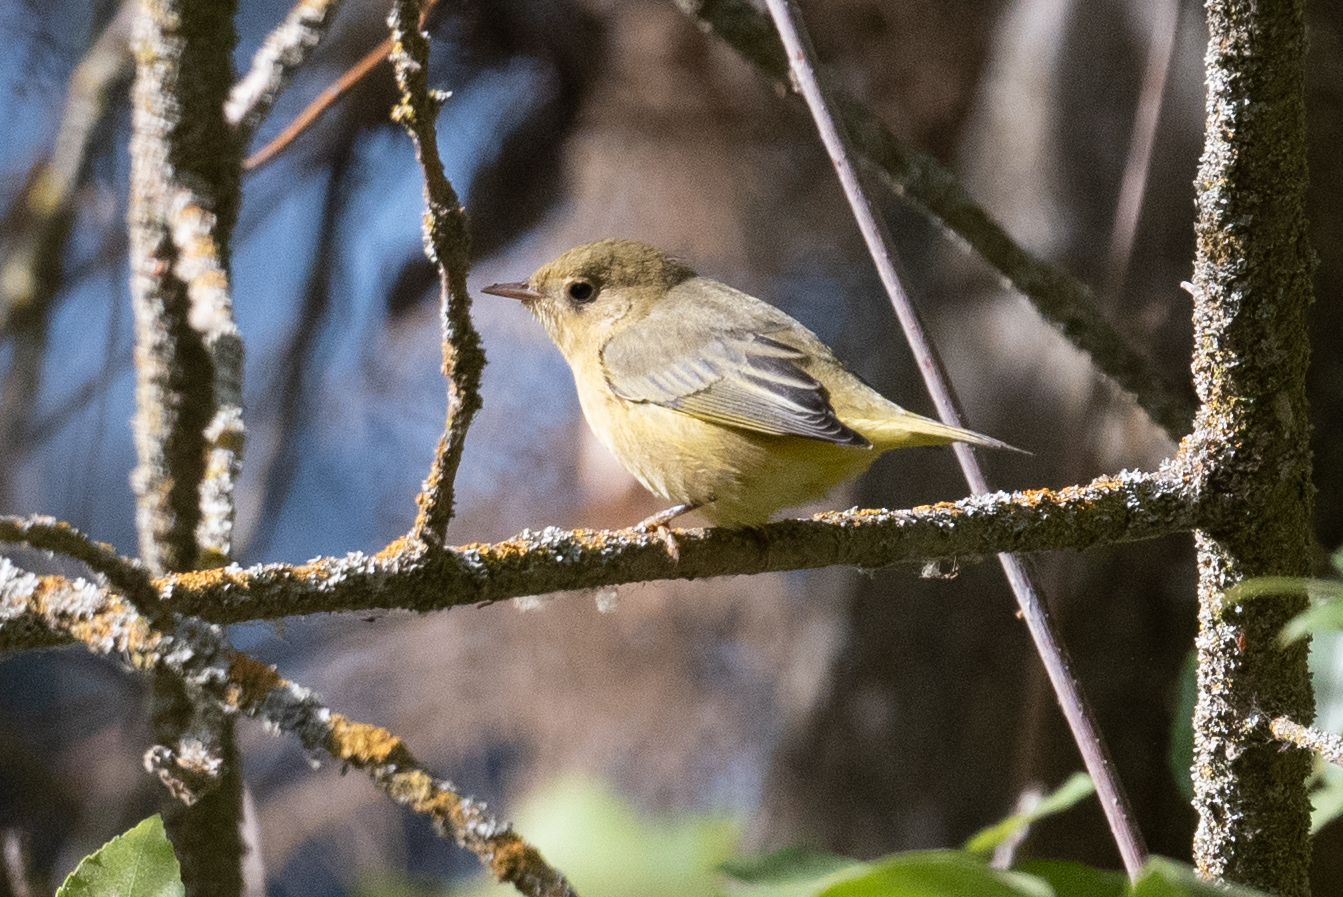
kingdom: Animalia
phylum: Chordata
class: Aves
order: Passeriformes
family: Parulidae
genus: Setophaga
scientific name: Setophaga petechia
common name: Yellow warbler
